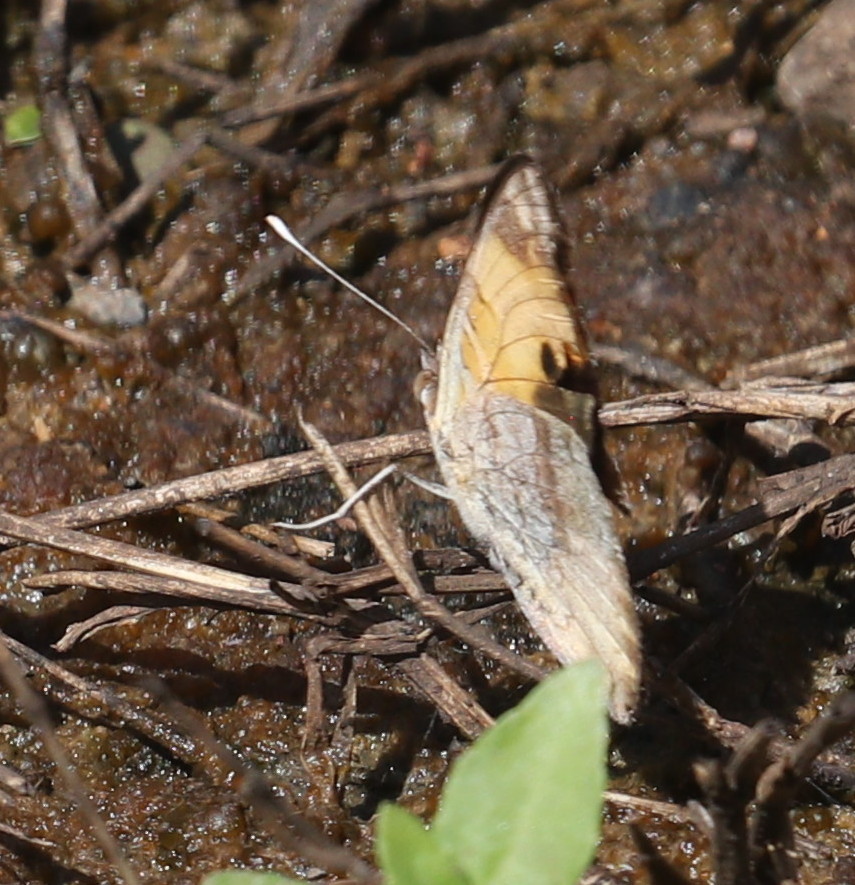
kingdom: Animalia
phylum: Arthropoda
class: Insecta
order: Lepidoptera
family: Nymphalidae
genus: Junonia
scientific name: Junonia hierta
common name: Yellow pansy
